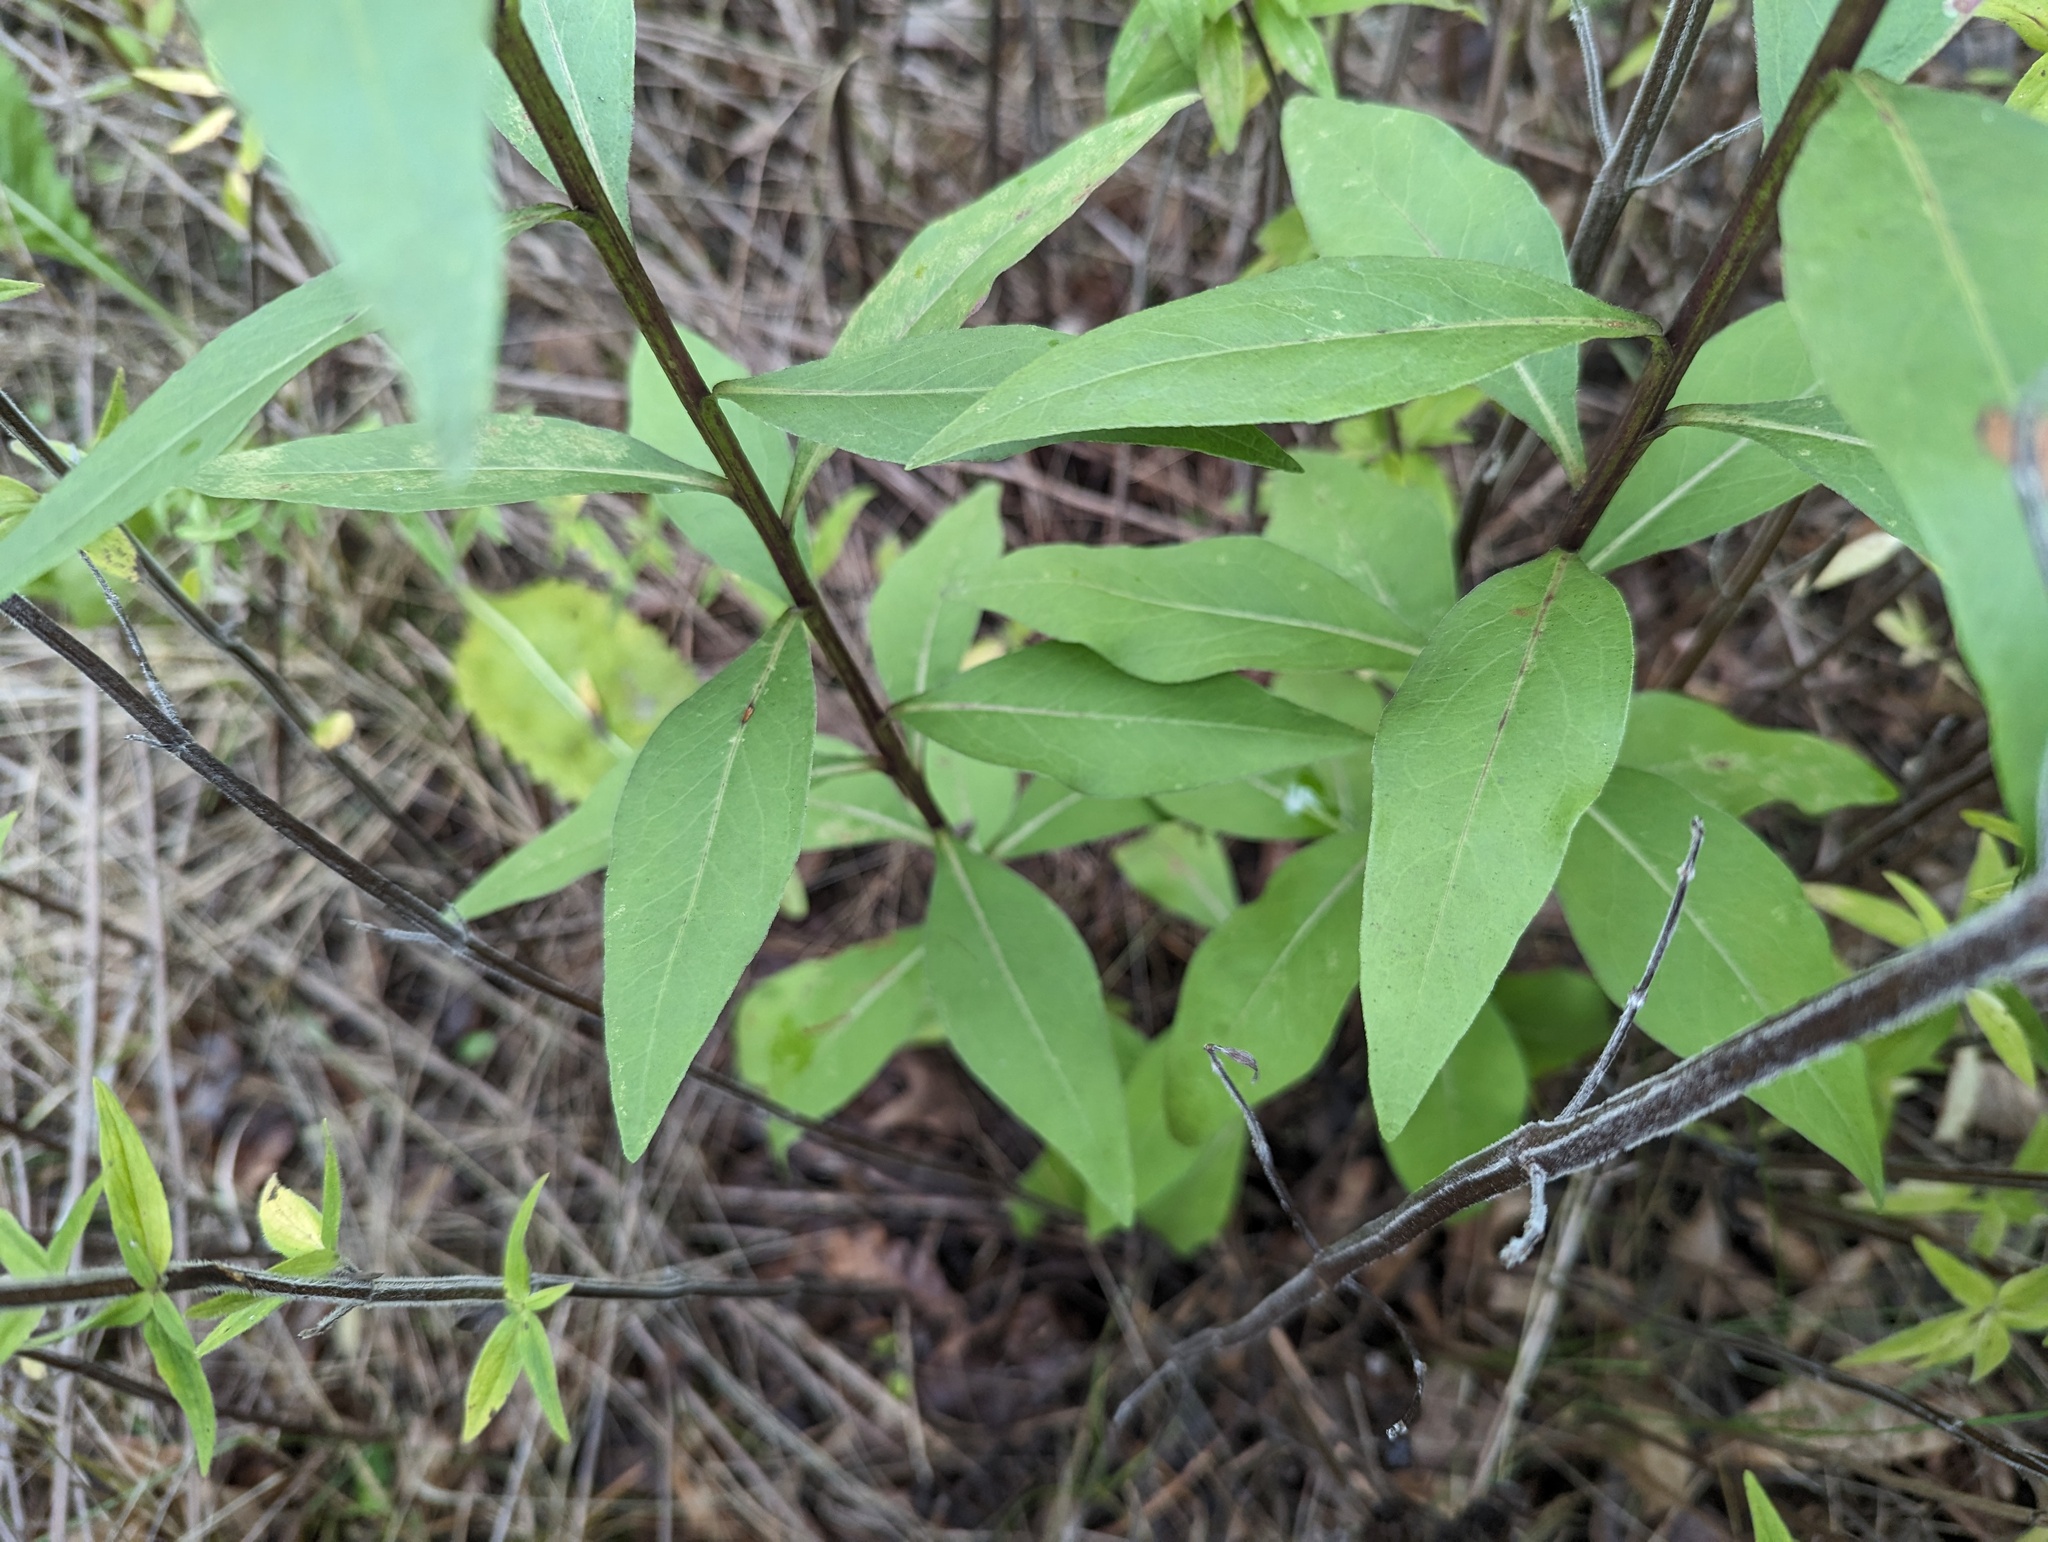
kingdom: Plantae
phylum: Tracheophyta
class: Magnoliopsida
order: Asterales
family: Asteraceae
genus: Solidago
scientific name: Solidago speciosa
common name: Showy goldenrod
